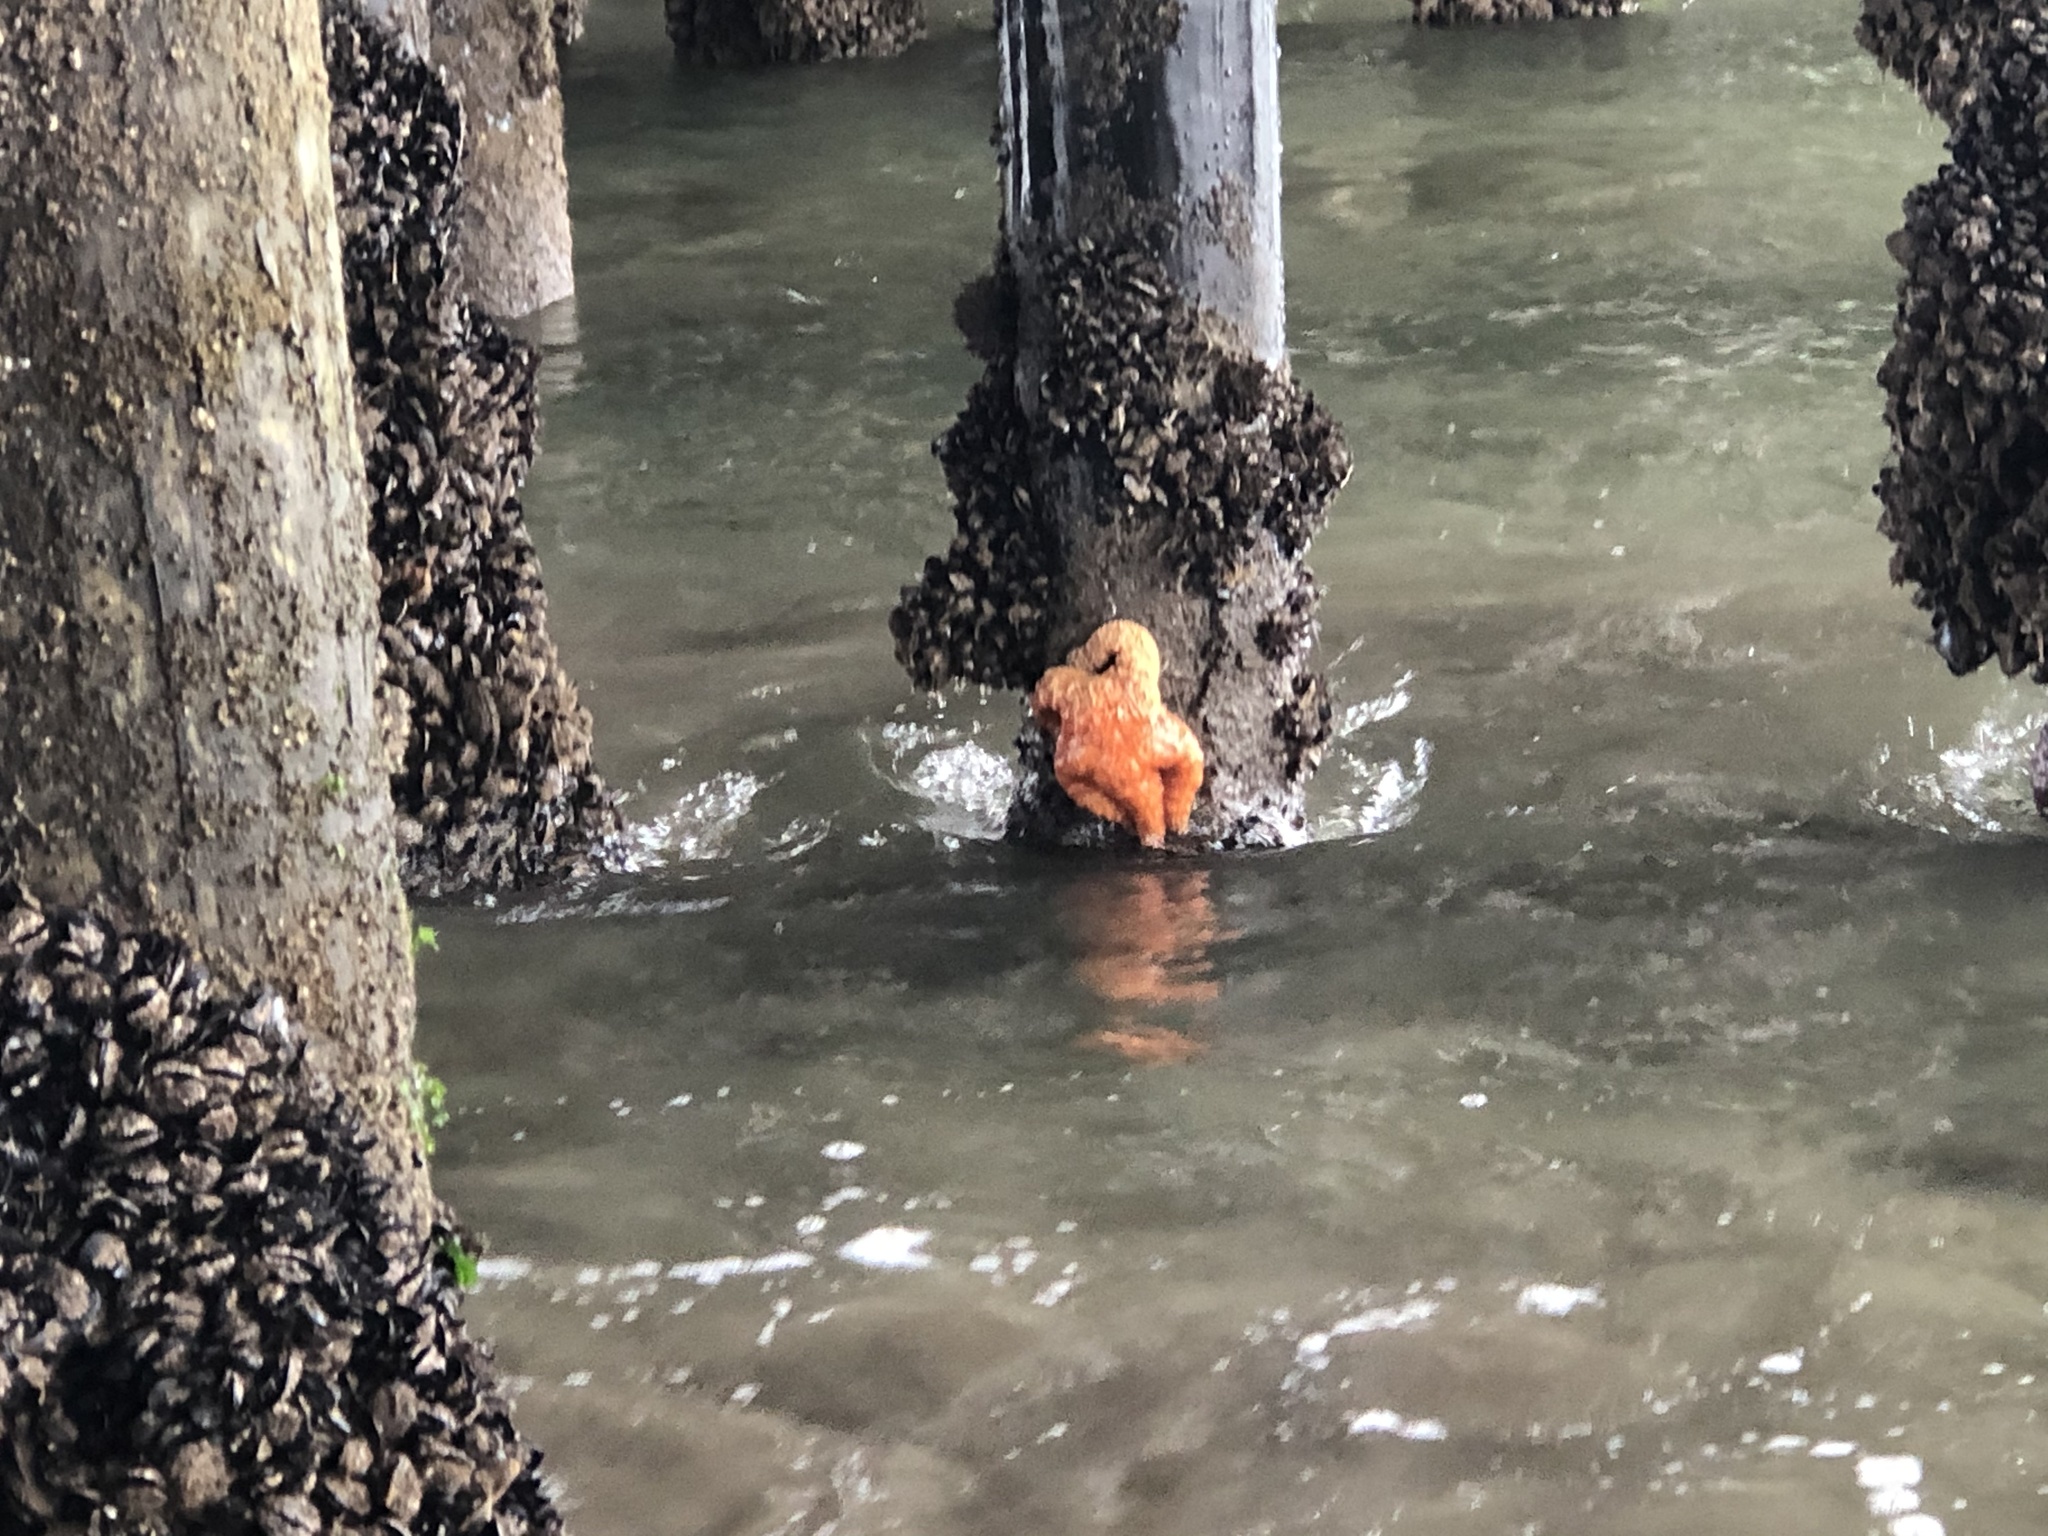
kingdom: Animalia
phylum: Echinodermata
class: Asteroidea
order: Forcipulatida
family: Asteriidae
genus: Pisaster
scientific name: Pisaster ochraceus
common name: Ochre stars
